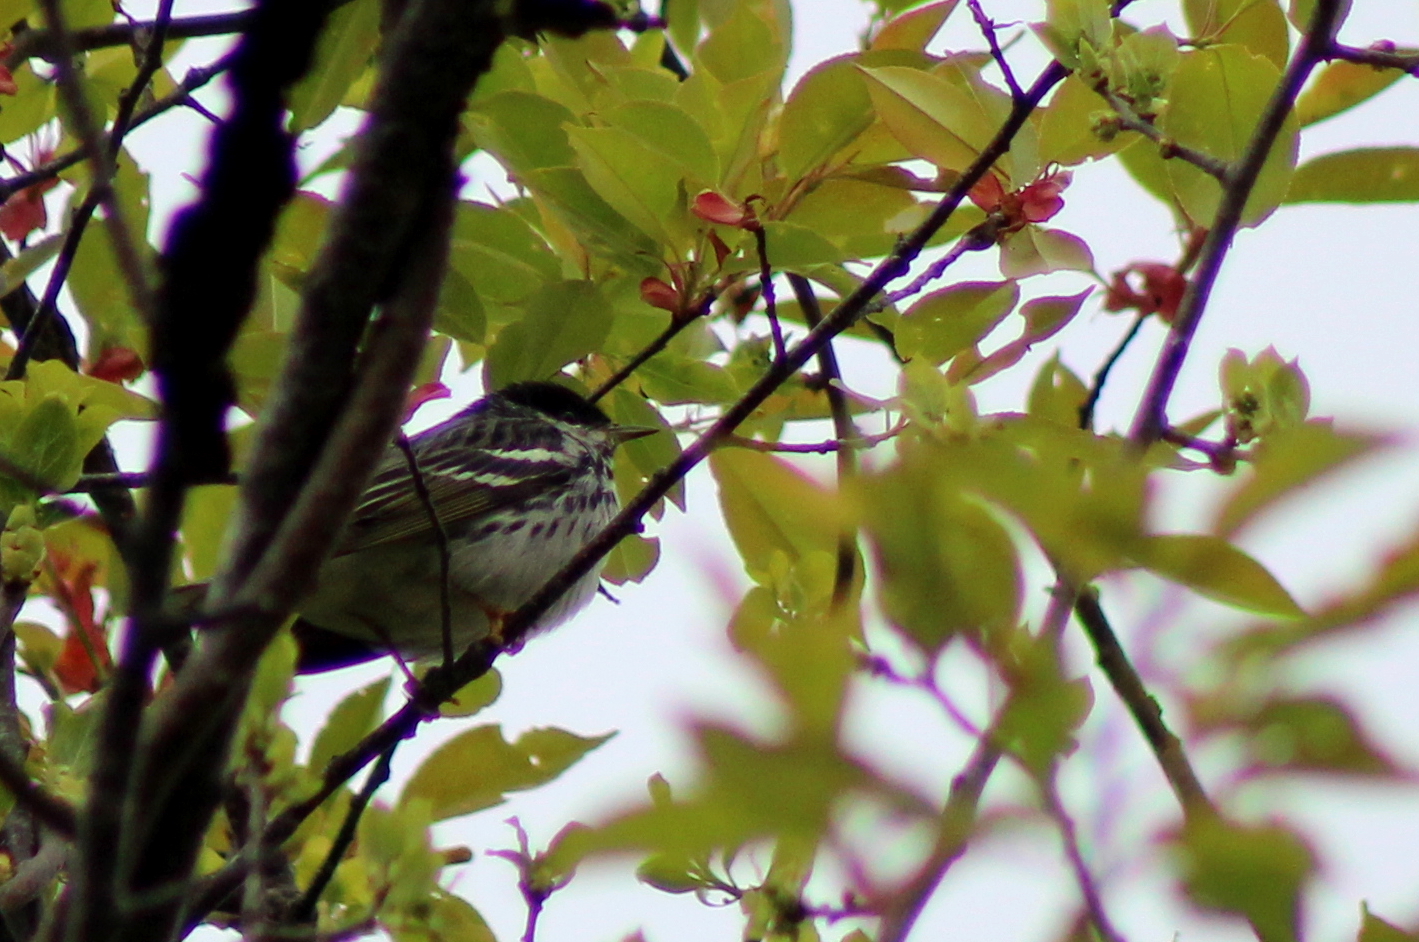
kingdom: Animalia
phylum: Chordata
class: Aves
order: Passeriformes
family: Parulidae
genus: Setophaga
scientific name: Setophaga striata
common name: Blackpoll warbler
